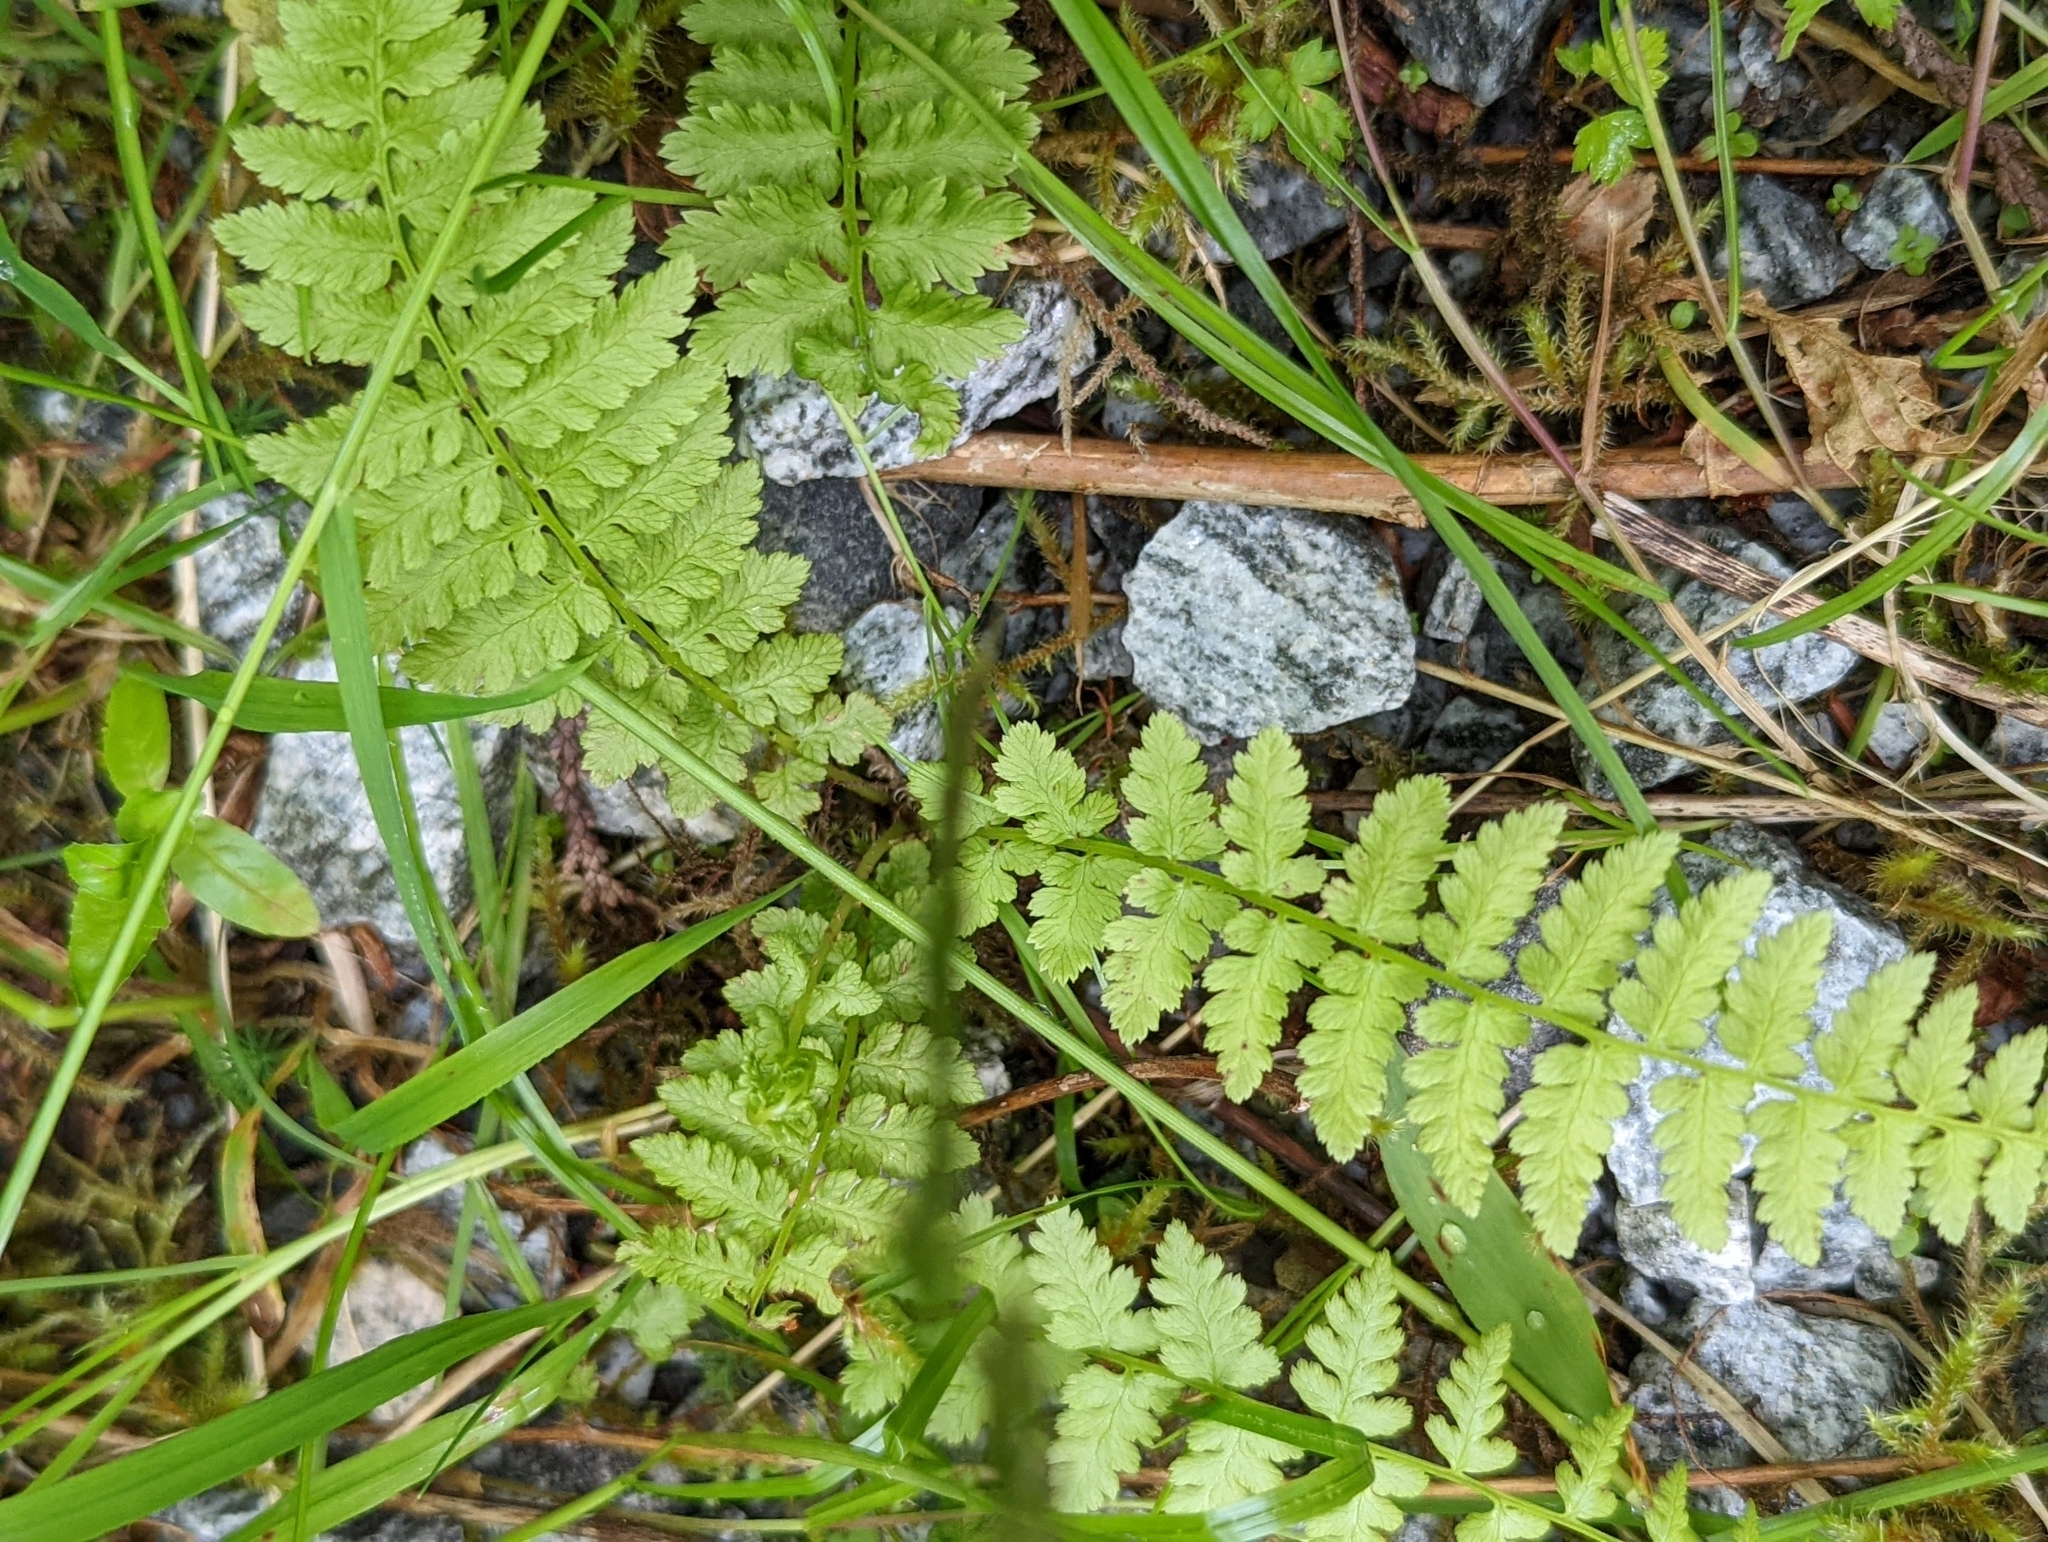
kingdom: Plantae
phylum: Tracheophyta
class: Polypodiopsida
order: Polypodiales
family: Athyriaceae
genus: Athyrium
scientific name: Athyrium filix-femina
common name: Lady fern
